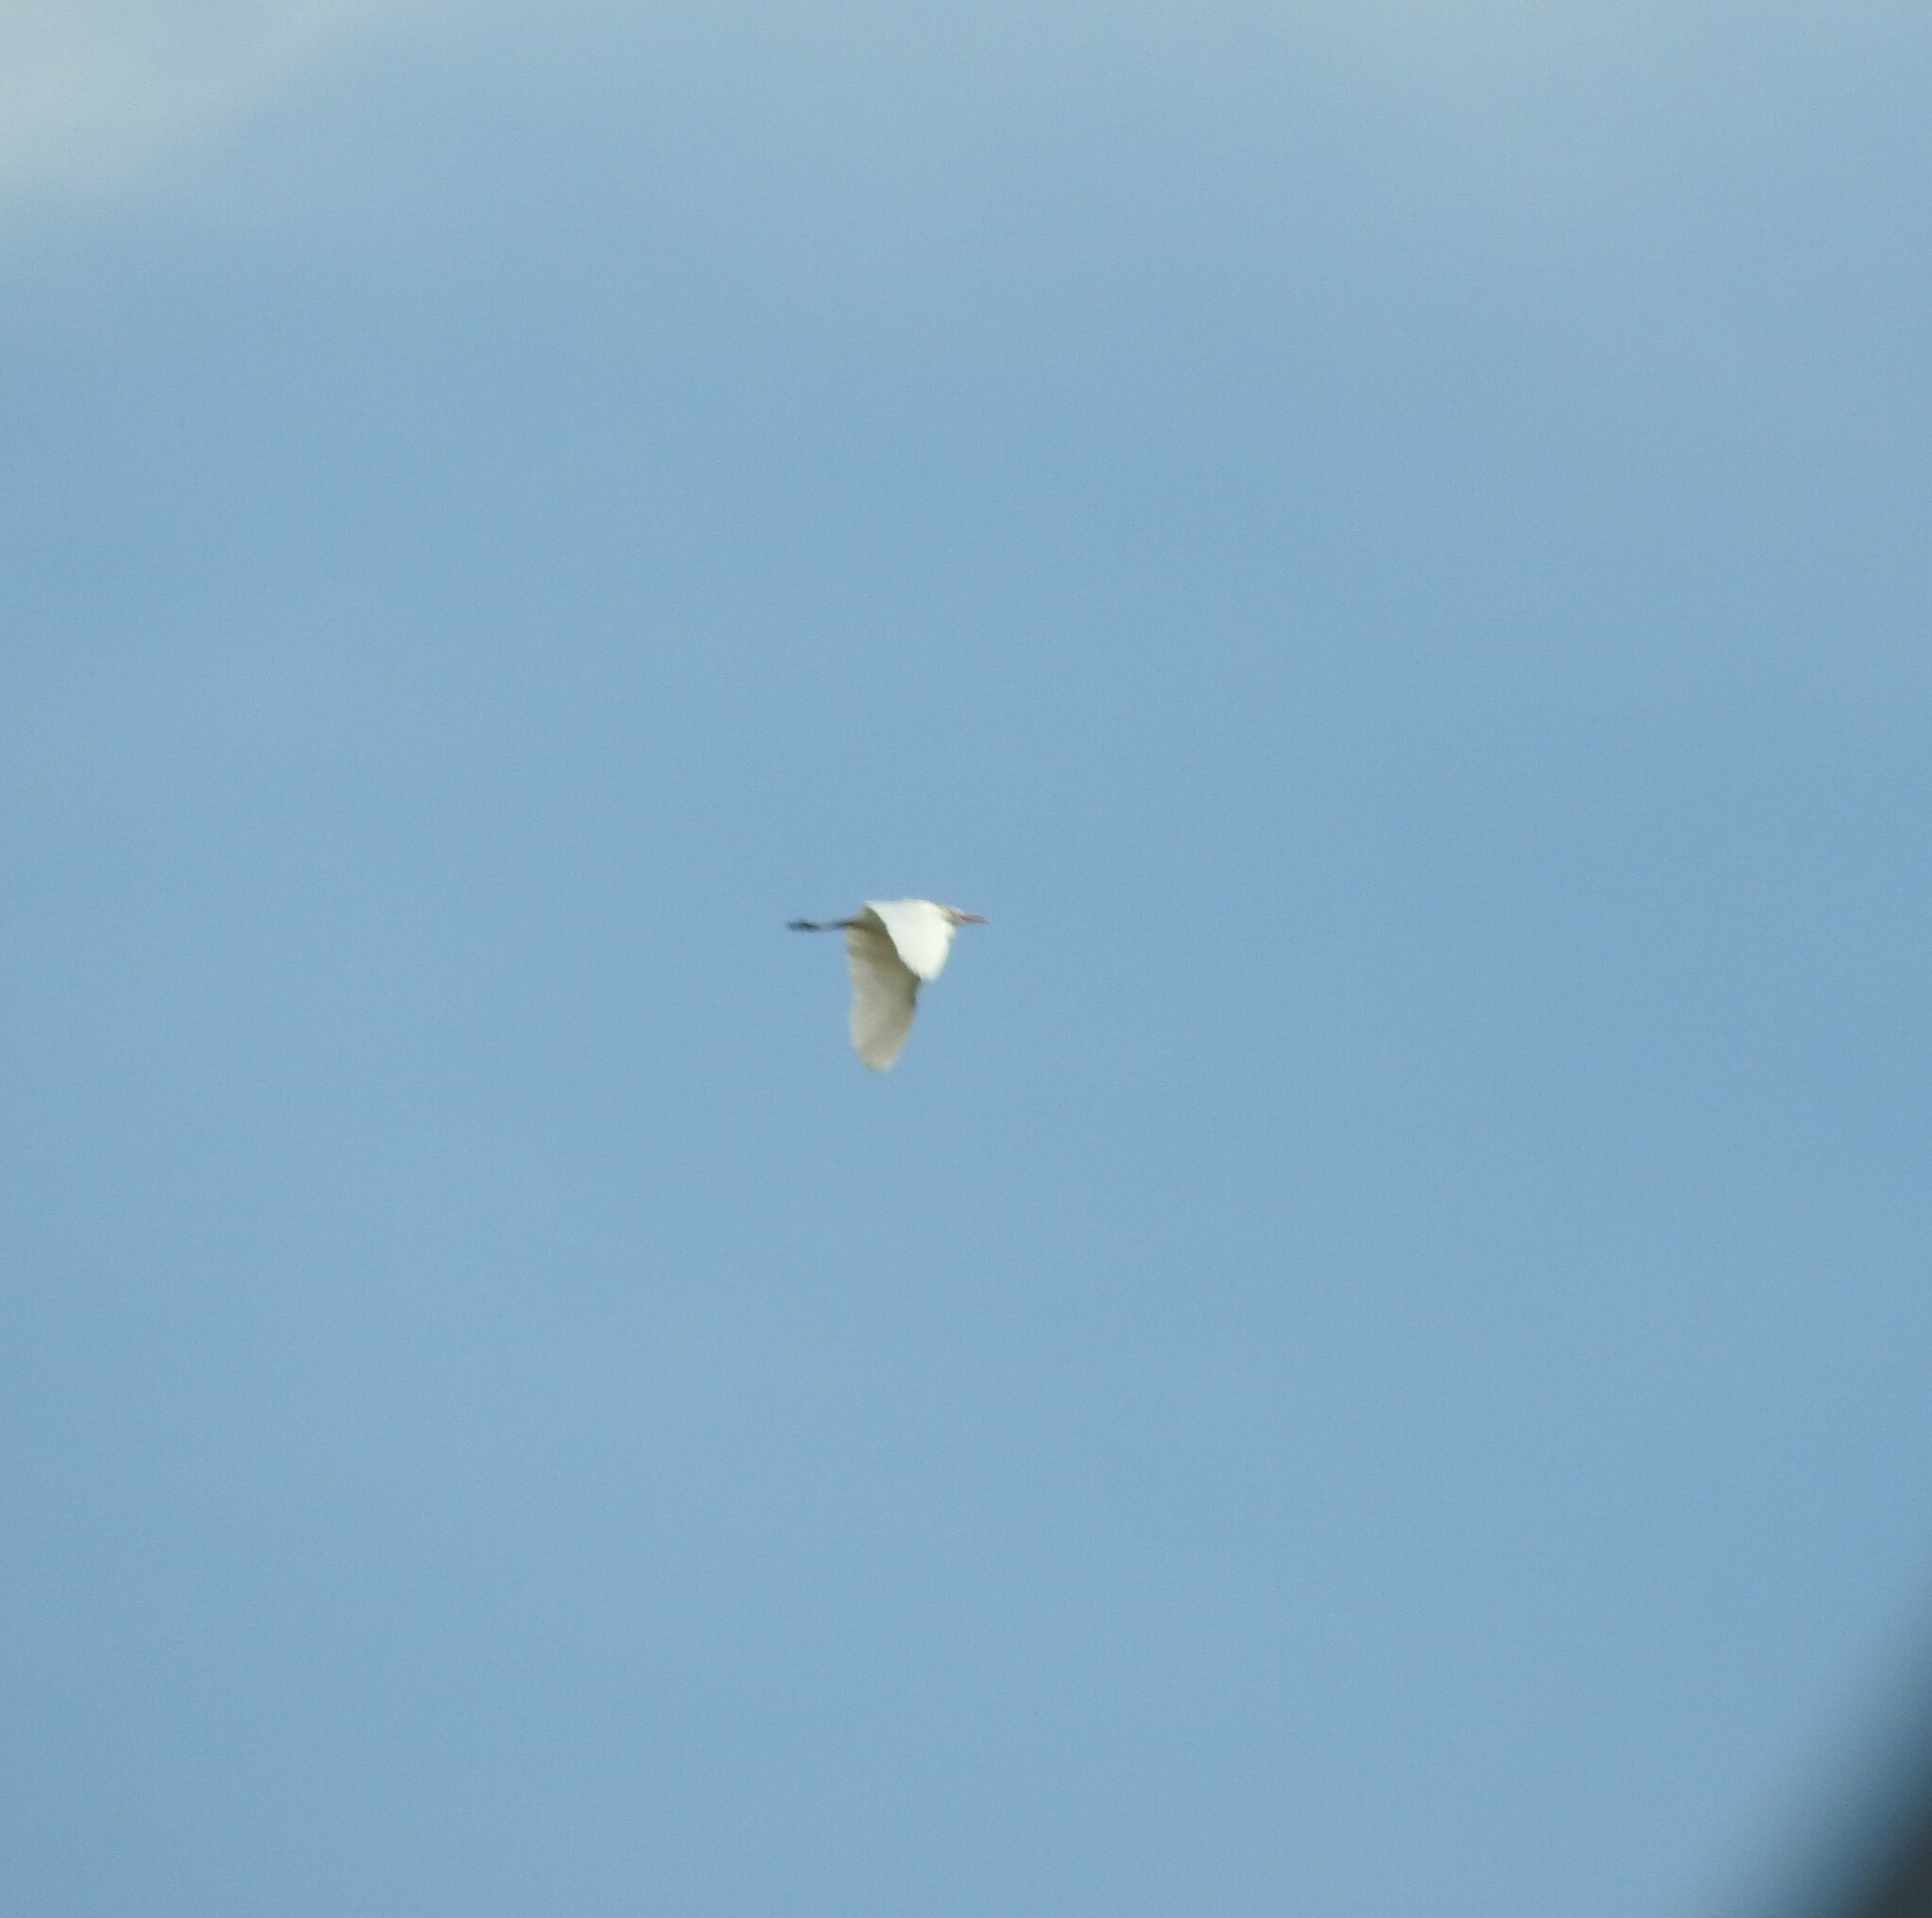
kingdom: Animalia
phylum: Chordata
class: Aves
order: Pelecaniformes
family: Ardeidae
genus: Bubulcus
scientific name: Bubulcus ibis
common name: Cattle egret
